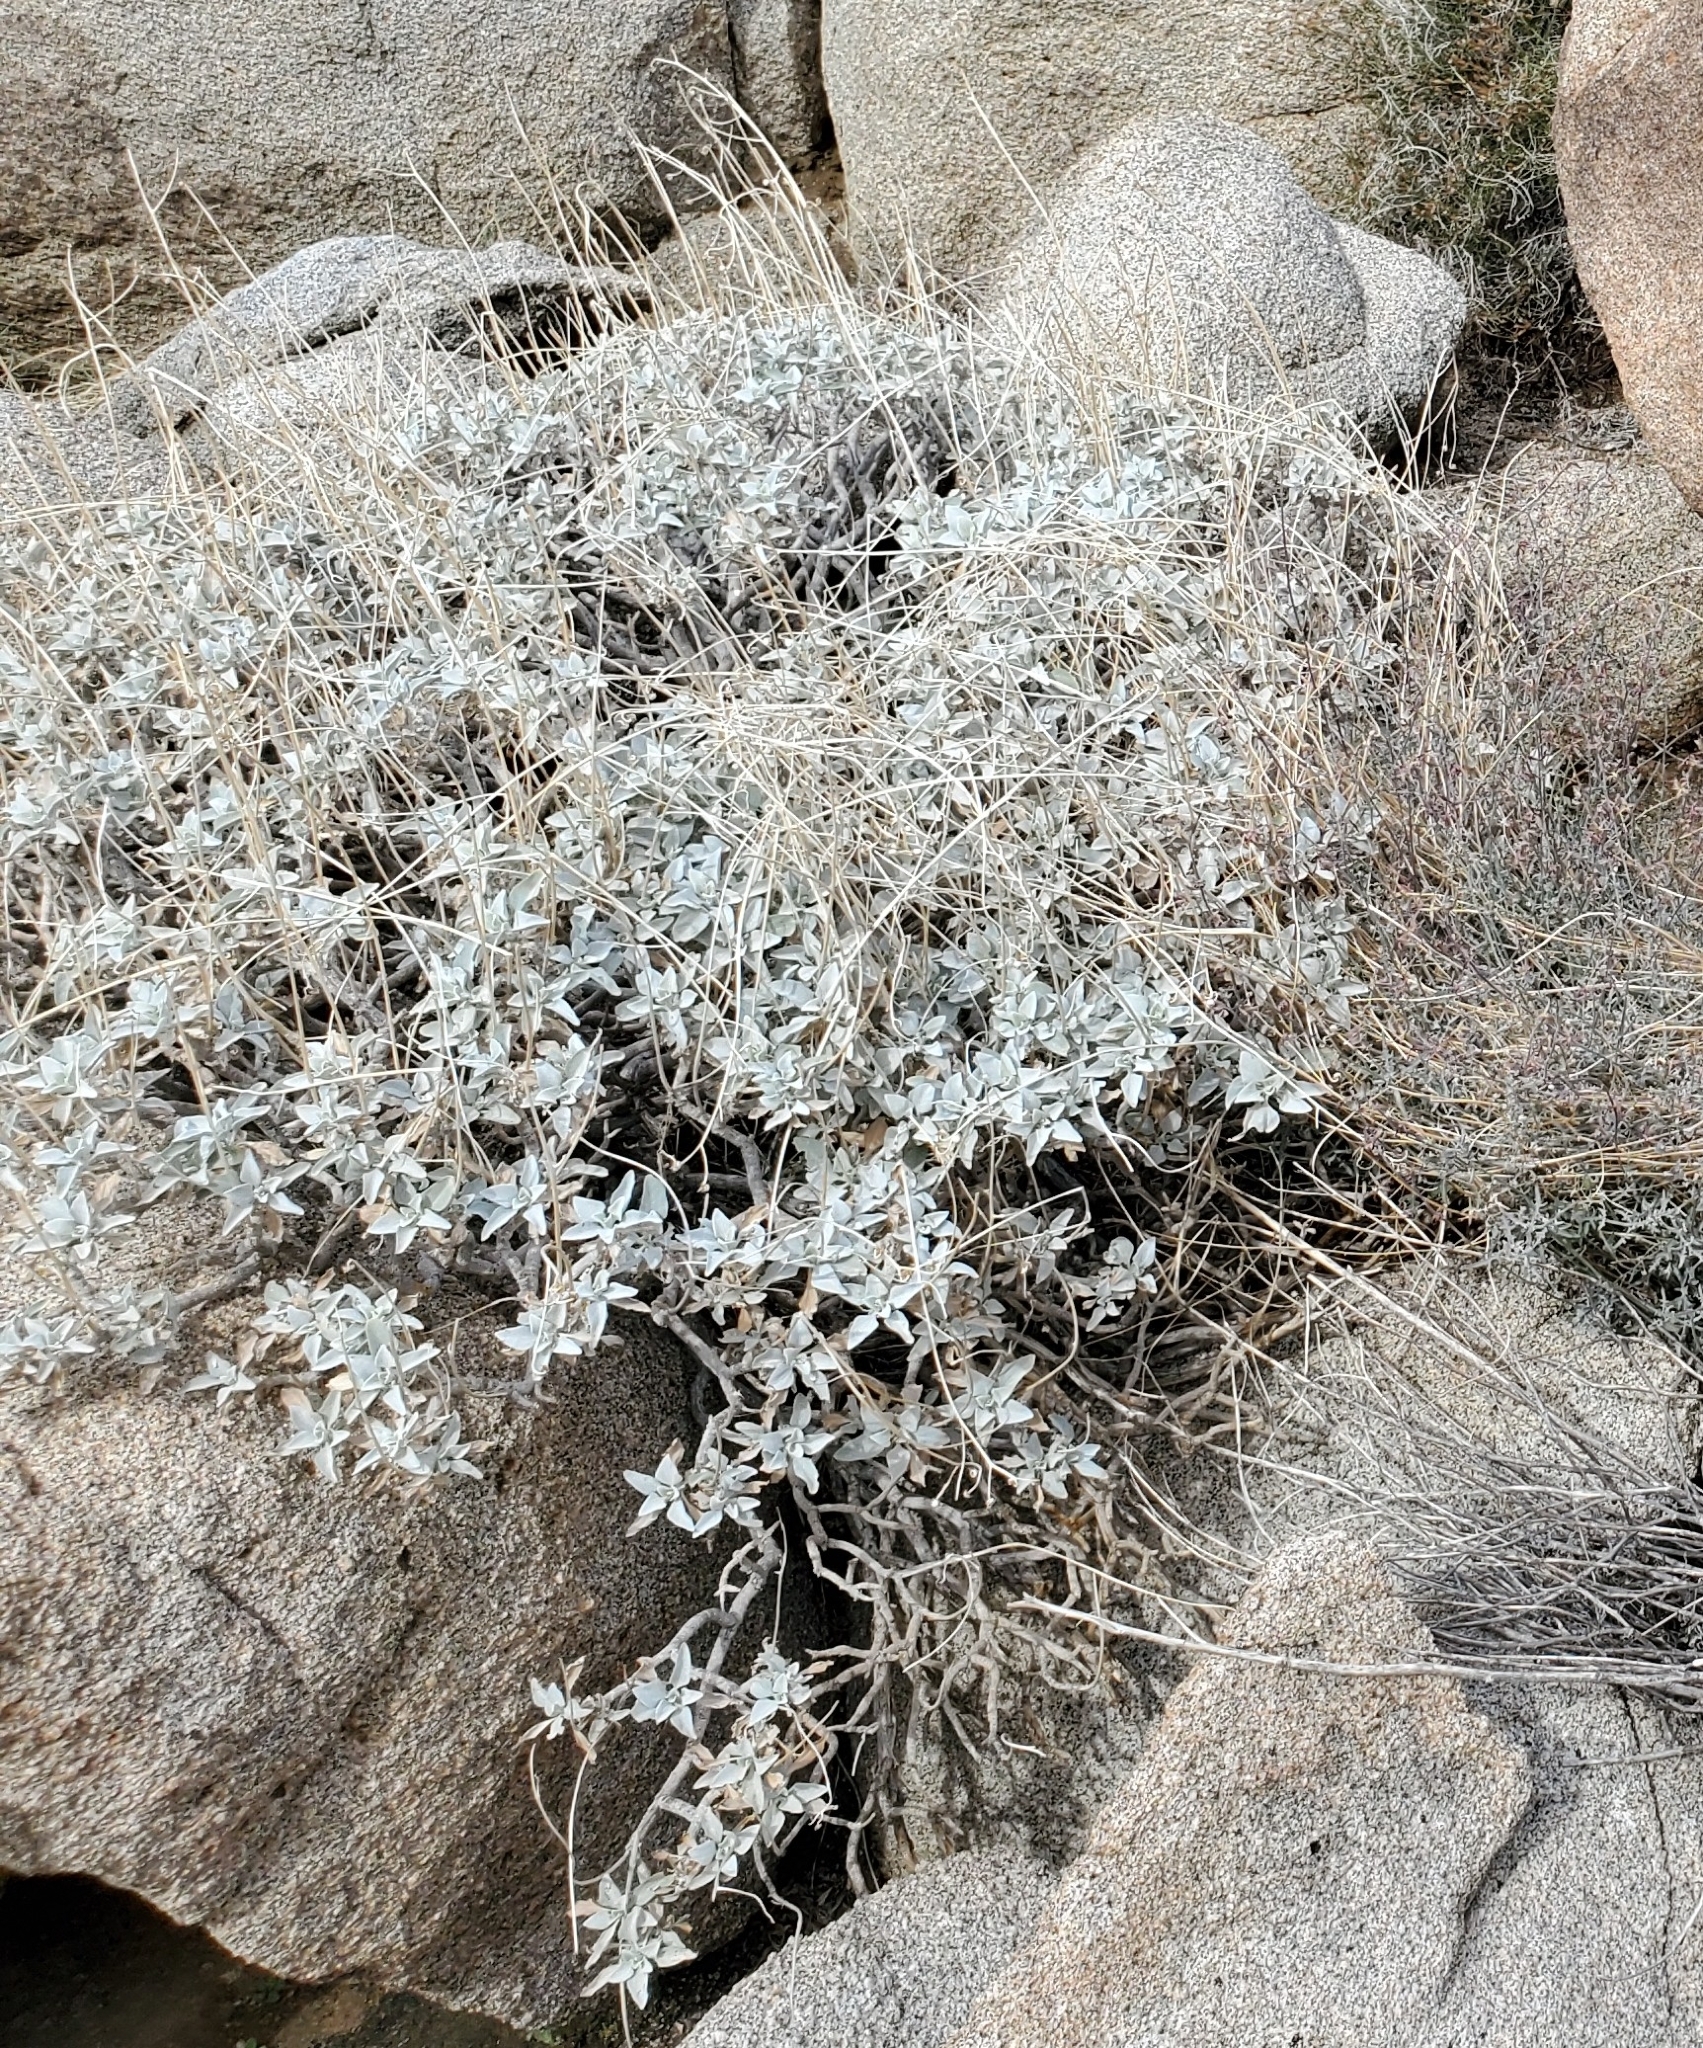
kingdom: Plantae
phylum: Tracheophyta
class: Magnoliopsida
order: Asterales
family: Asteraceae
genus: Encelia
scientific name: Encelia farinosa
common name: Brittlebush
